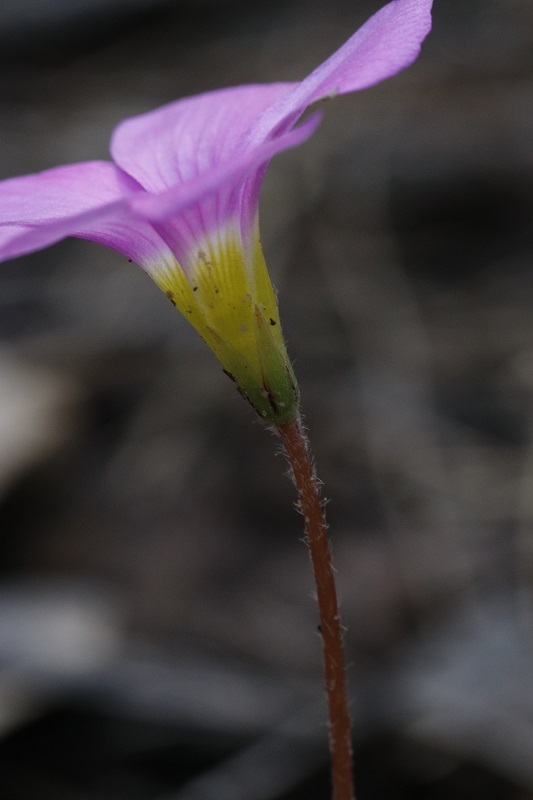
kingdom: Plantae
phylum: Tracheophyta
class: Magnoliopsida
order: Oxalidales
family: Oxalidaceae
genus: Oxalis
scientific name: Oxalis imbricata
